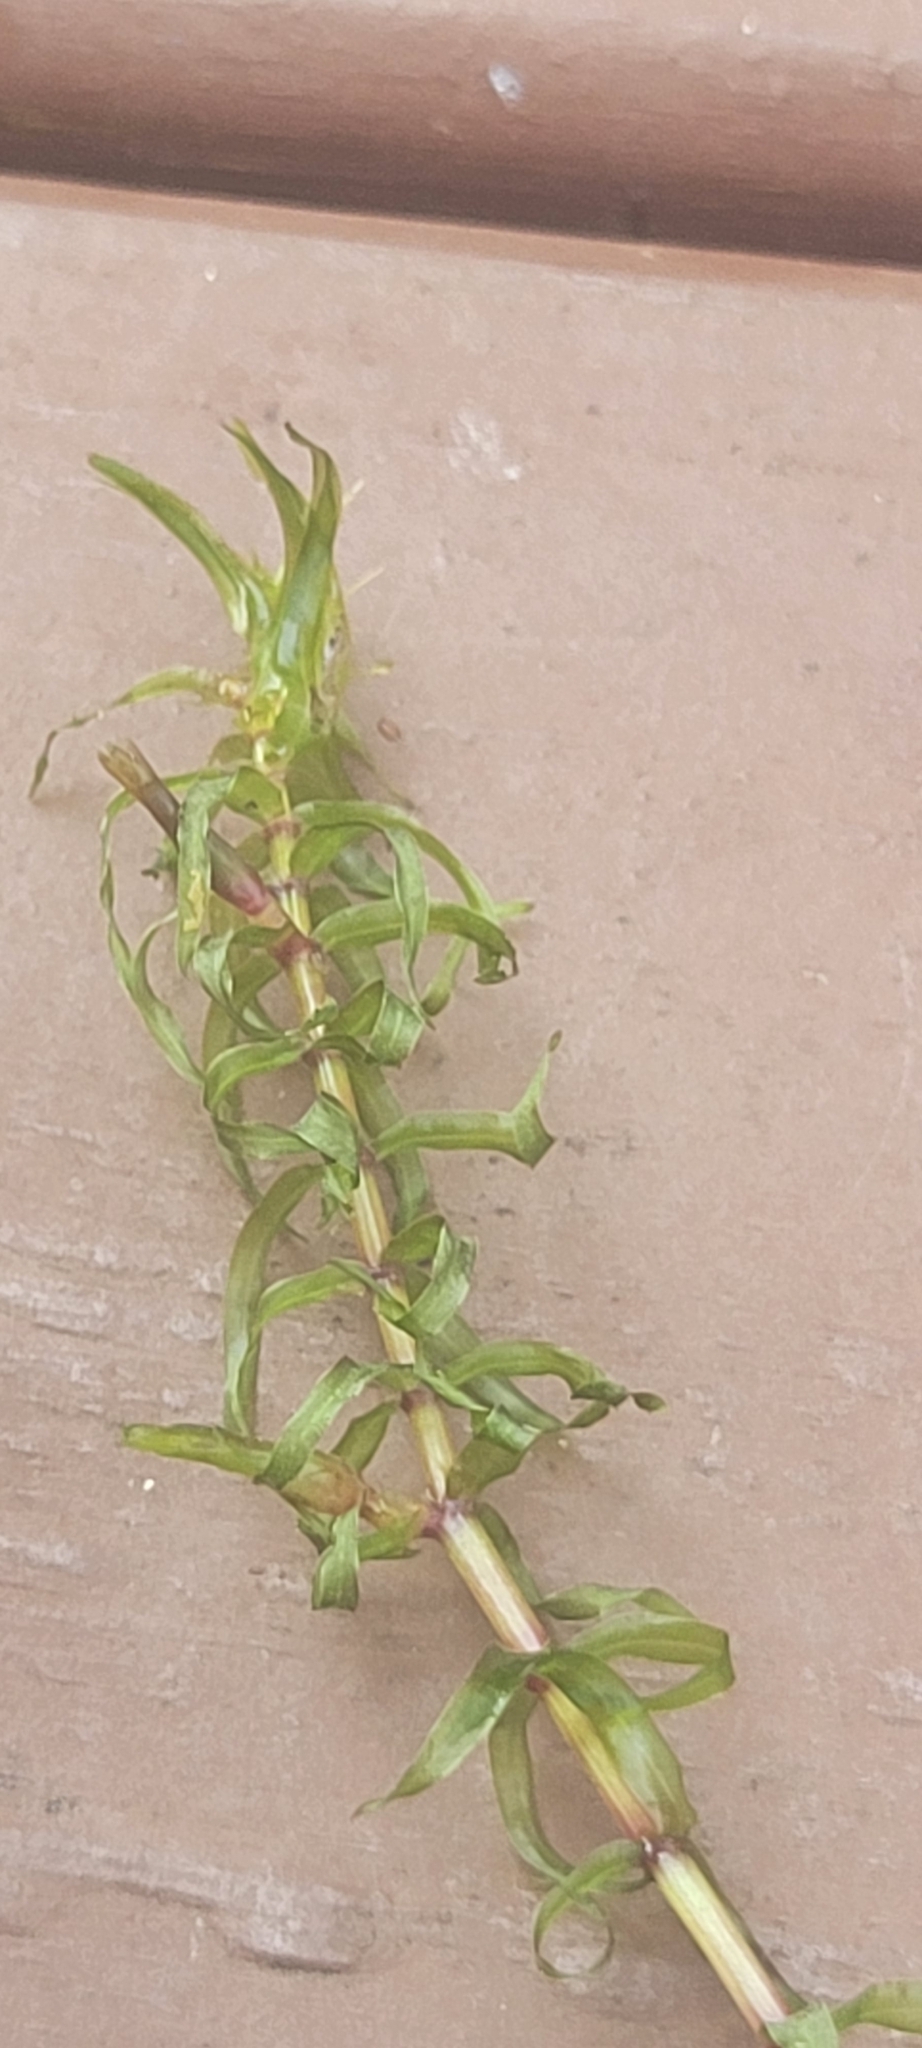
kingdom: Plantae
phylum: Tracheophyta
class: Liliopsida
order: Alismatales
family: Hydrocharitaceae
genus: Elodea
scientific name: Elodea nuttallii
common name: Nuttall's waterweed
